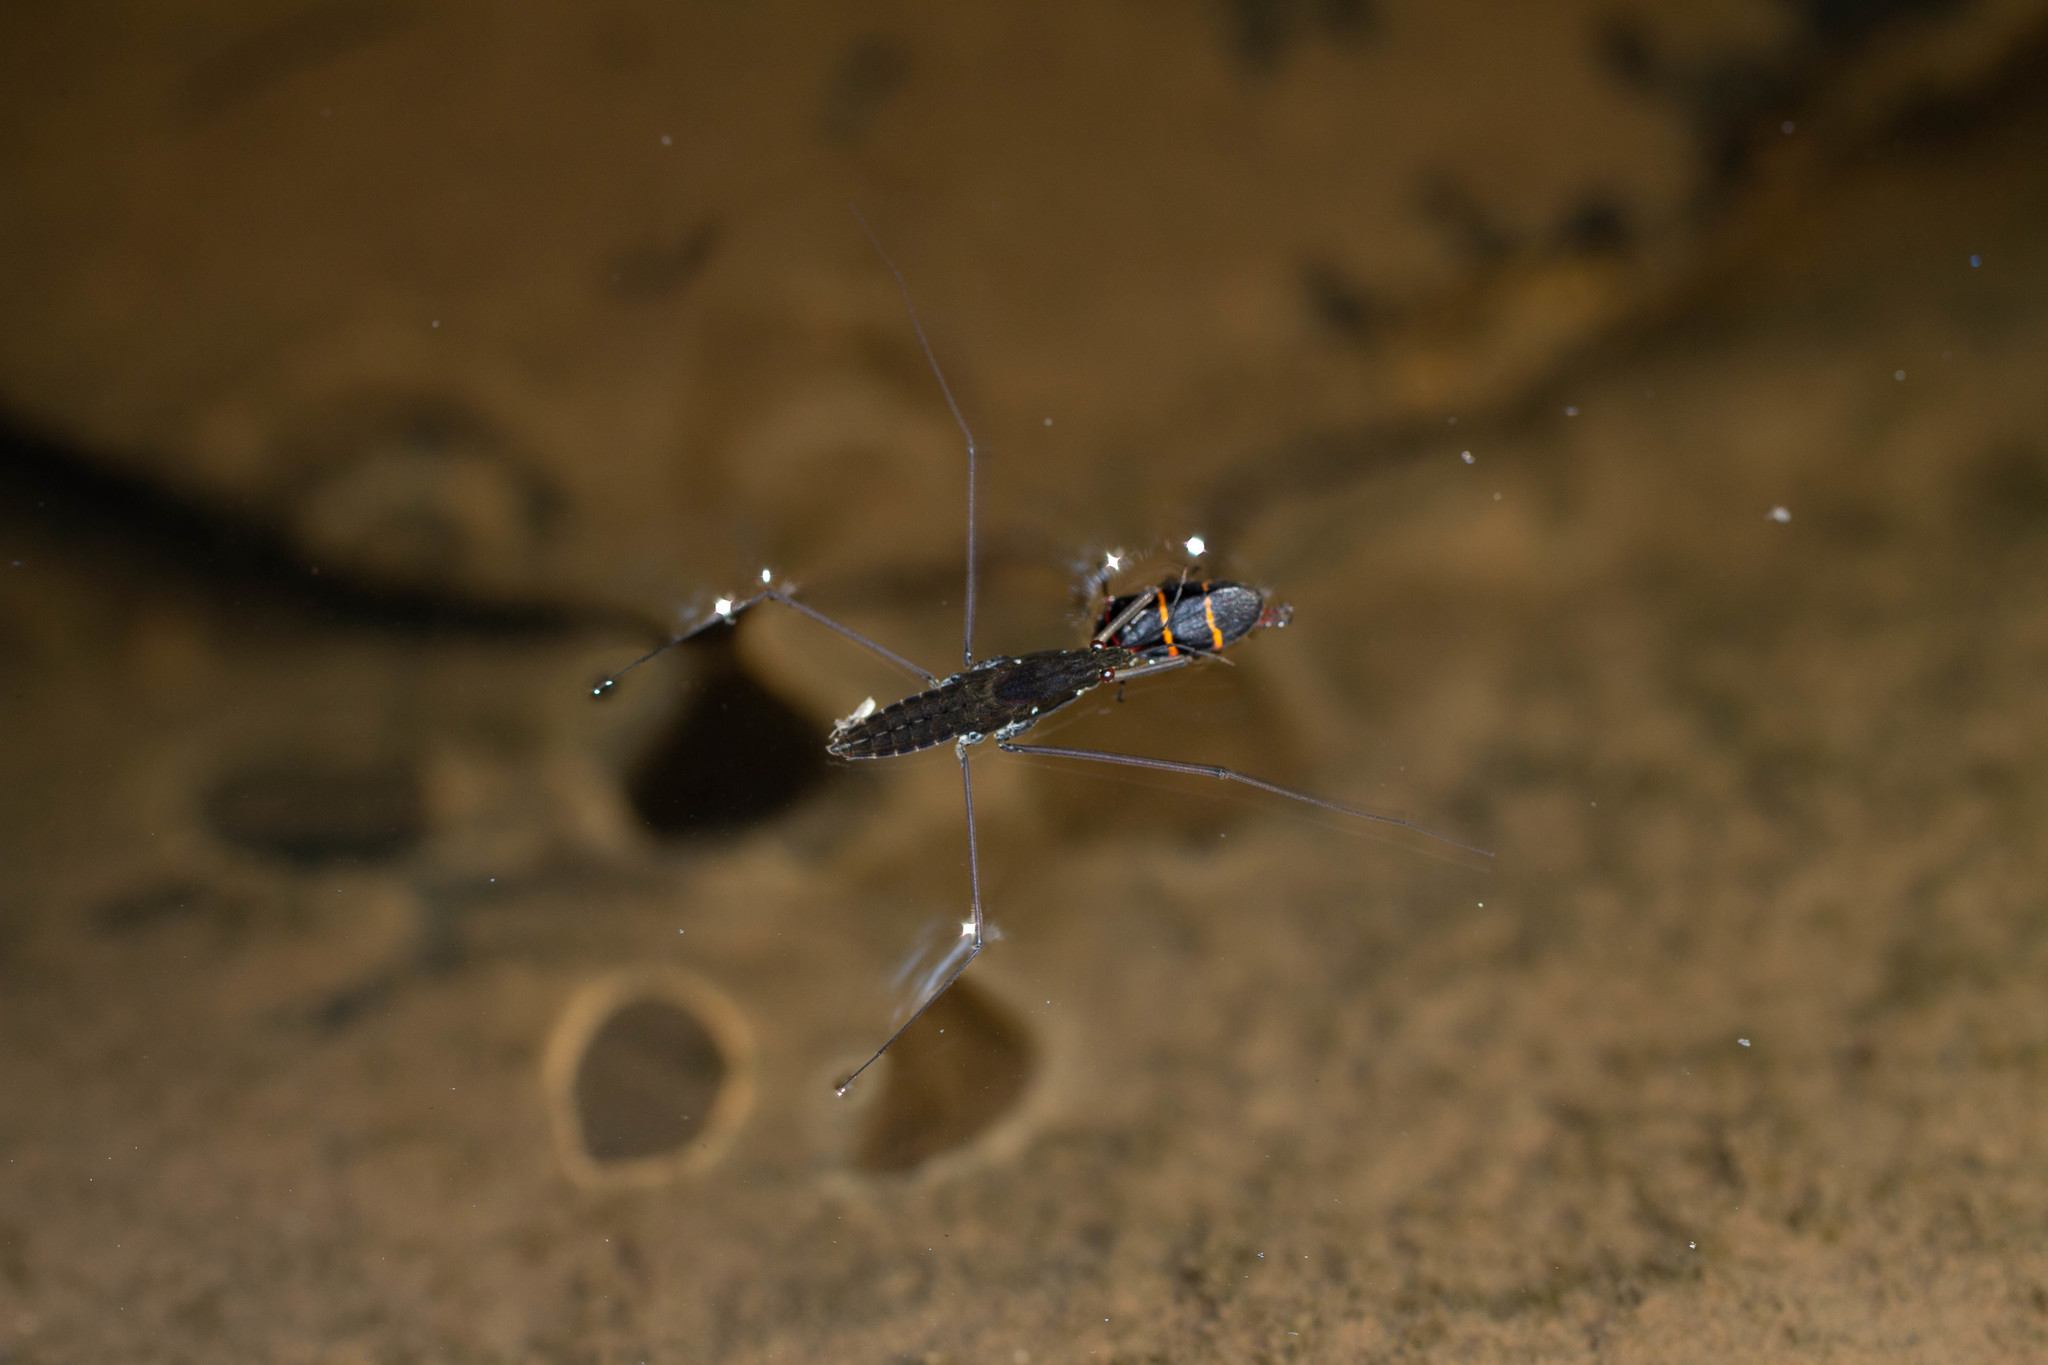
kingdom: Animalia
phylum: Arthropoda
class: Insecta
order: Hemiptera
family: Gerridae
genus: Aquarius
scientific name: Aquarius
